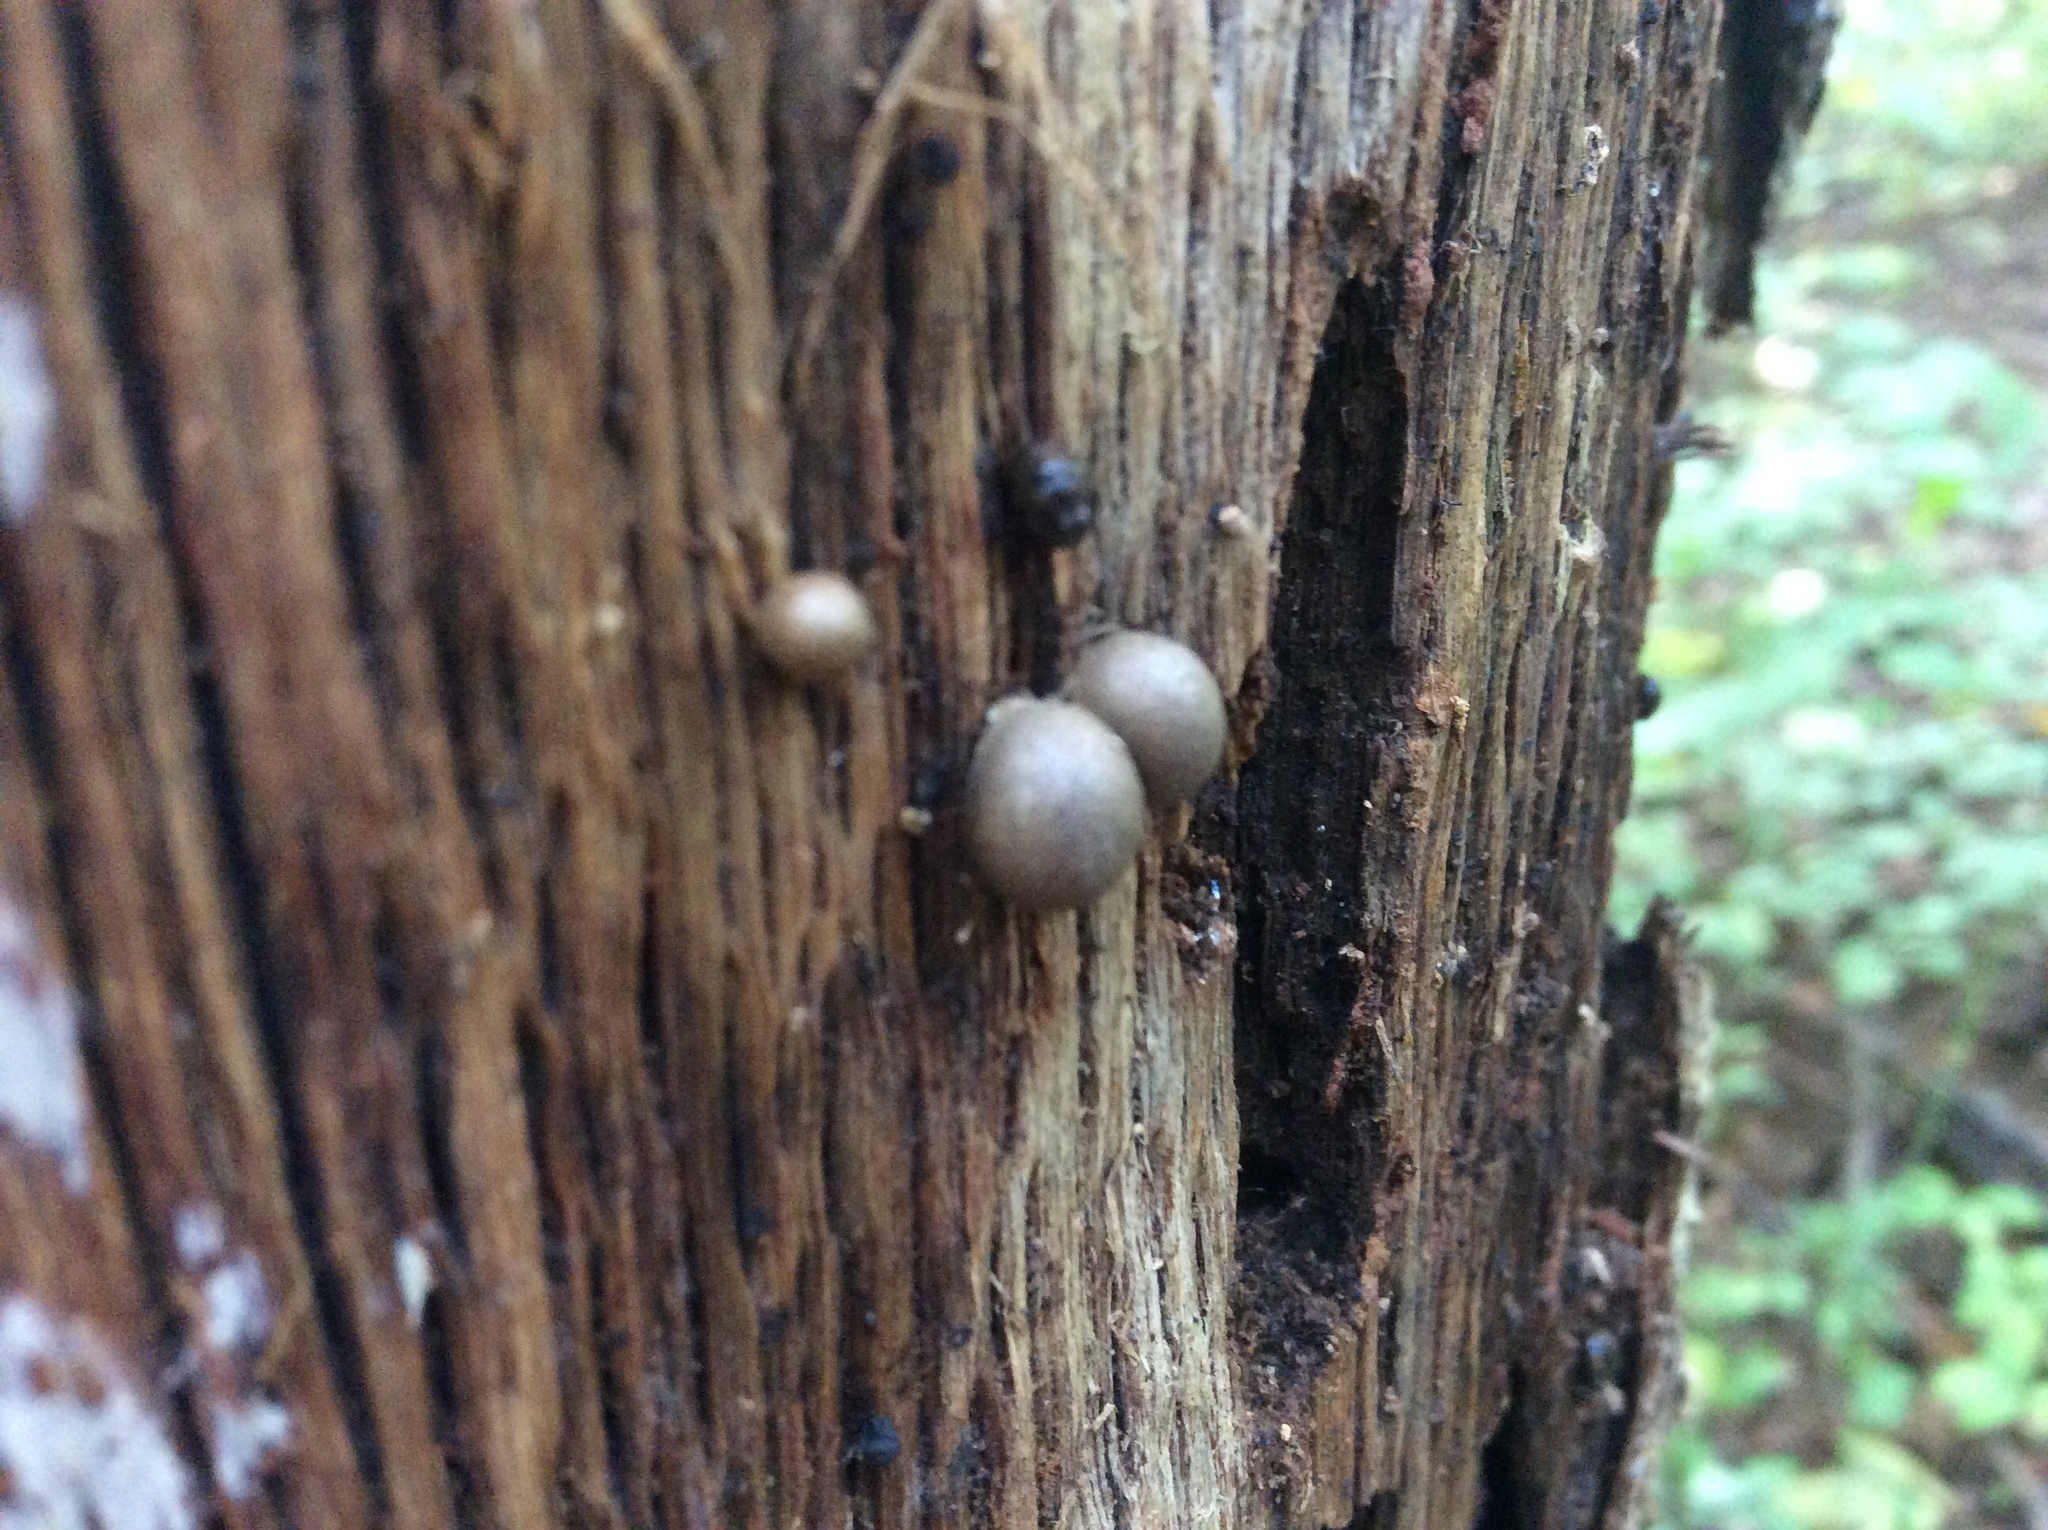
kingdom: Protozoa
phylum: Mycetozoa
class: Myxomycetes
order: Cribrariales
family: Tubiferaceae
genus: Lycogala
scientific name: Lycogala epidendrum
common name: Wolf's milk
